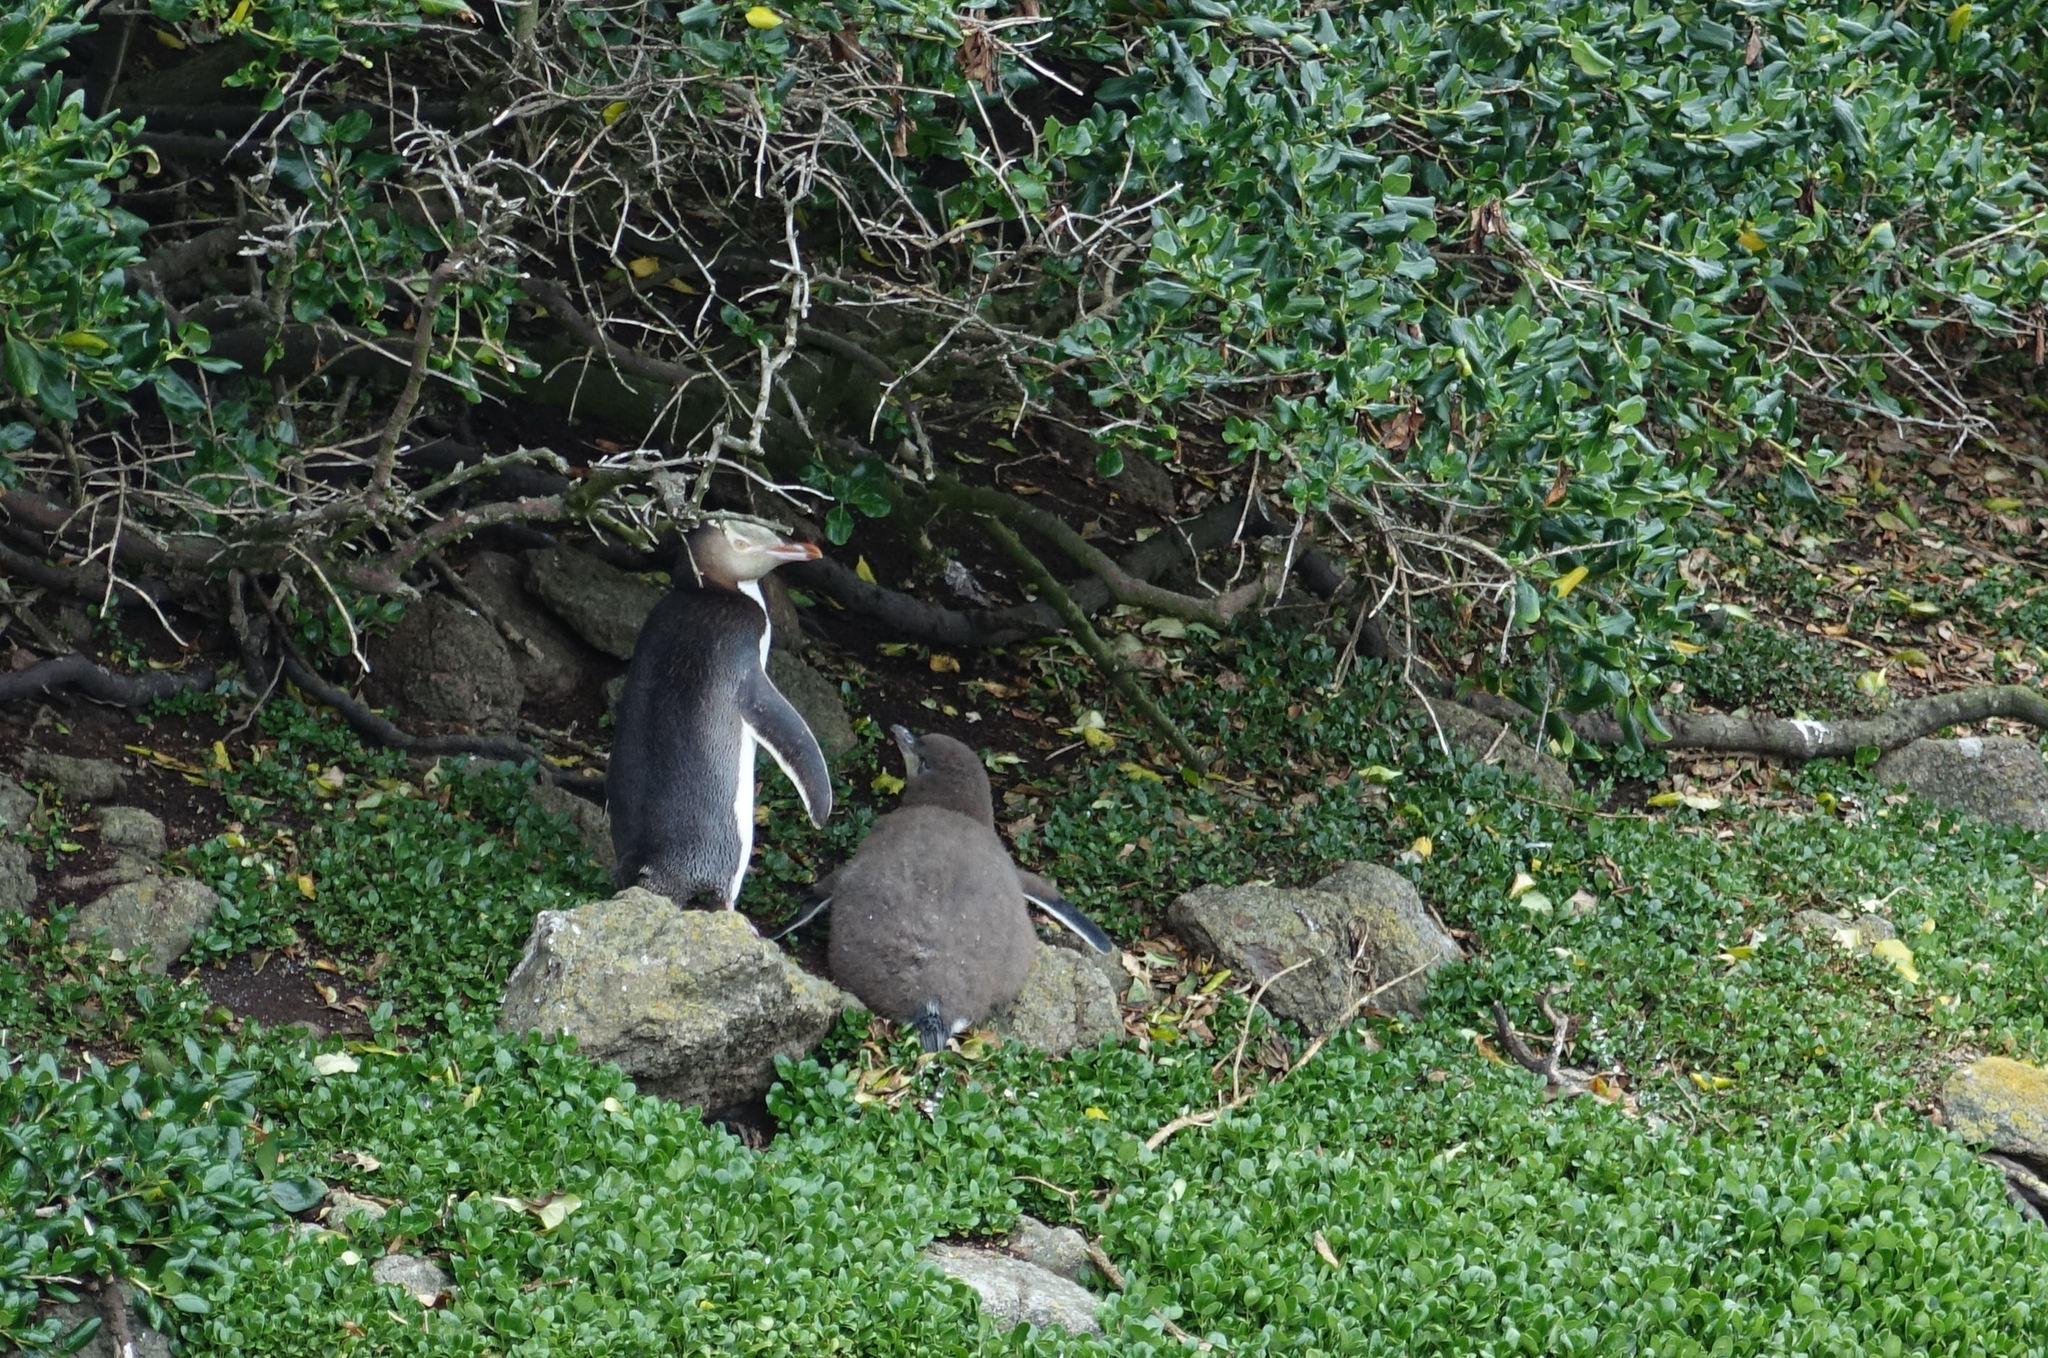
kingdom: Animalia
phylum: Chordata
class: Aves
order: Sphenisciformes
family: Spheniscidae
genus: Megadyptes
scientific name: Megadyptes antipodes
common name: Yellow-eyed penguin
